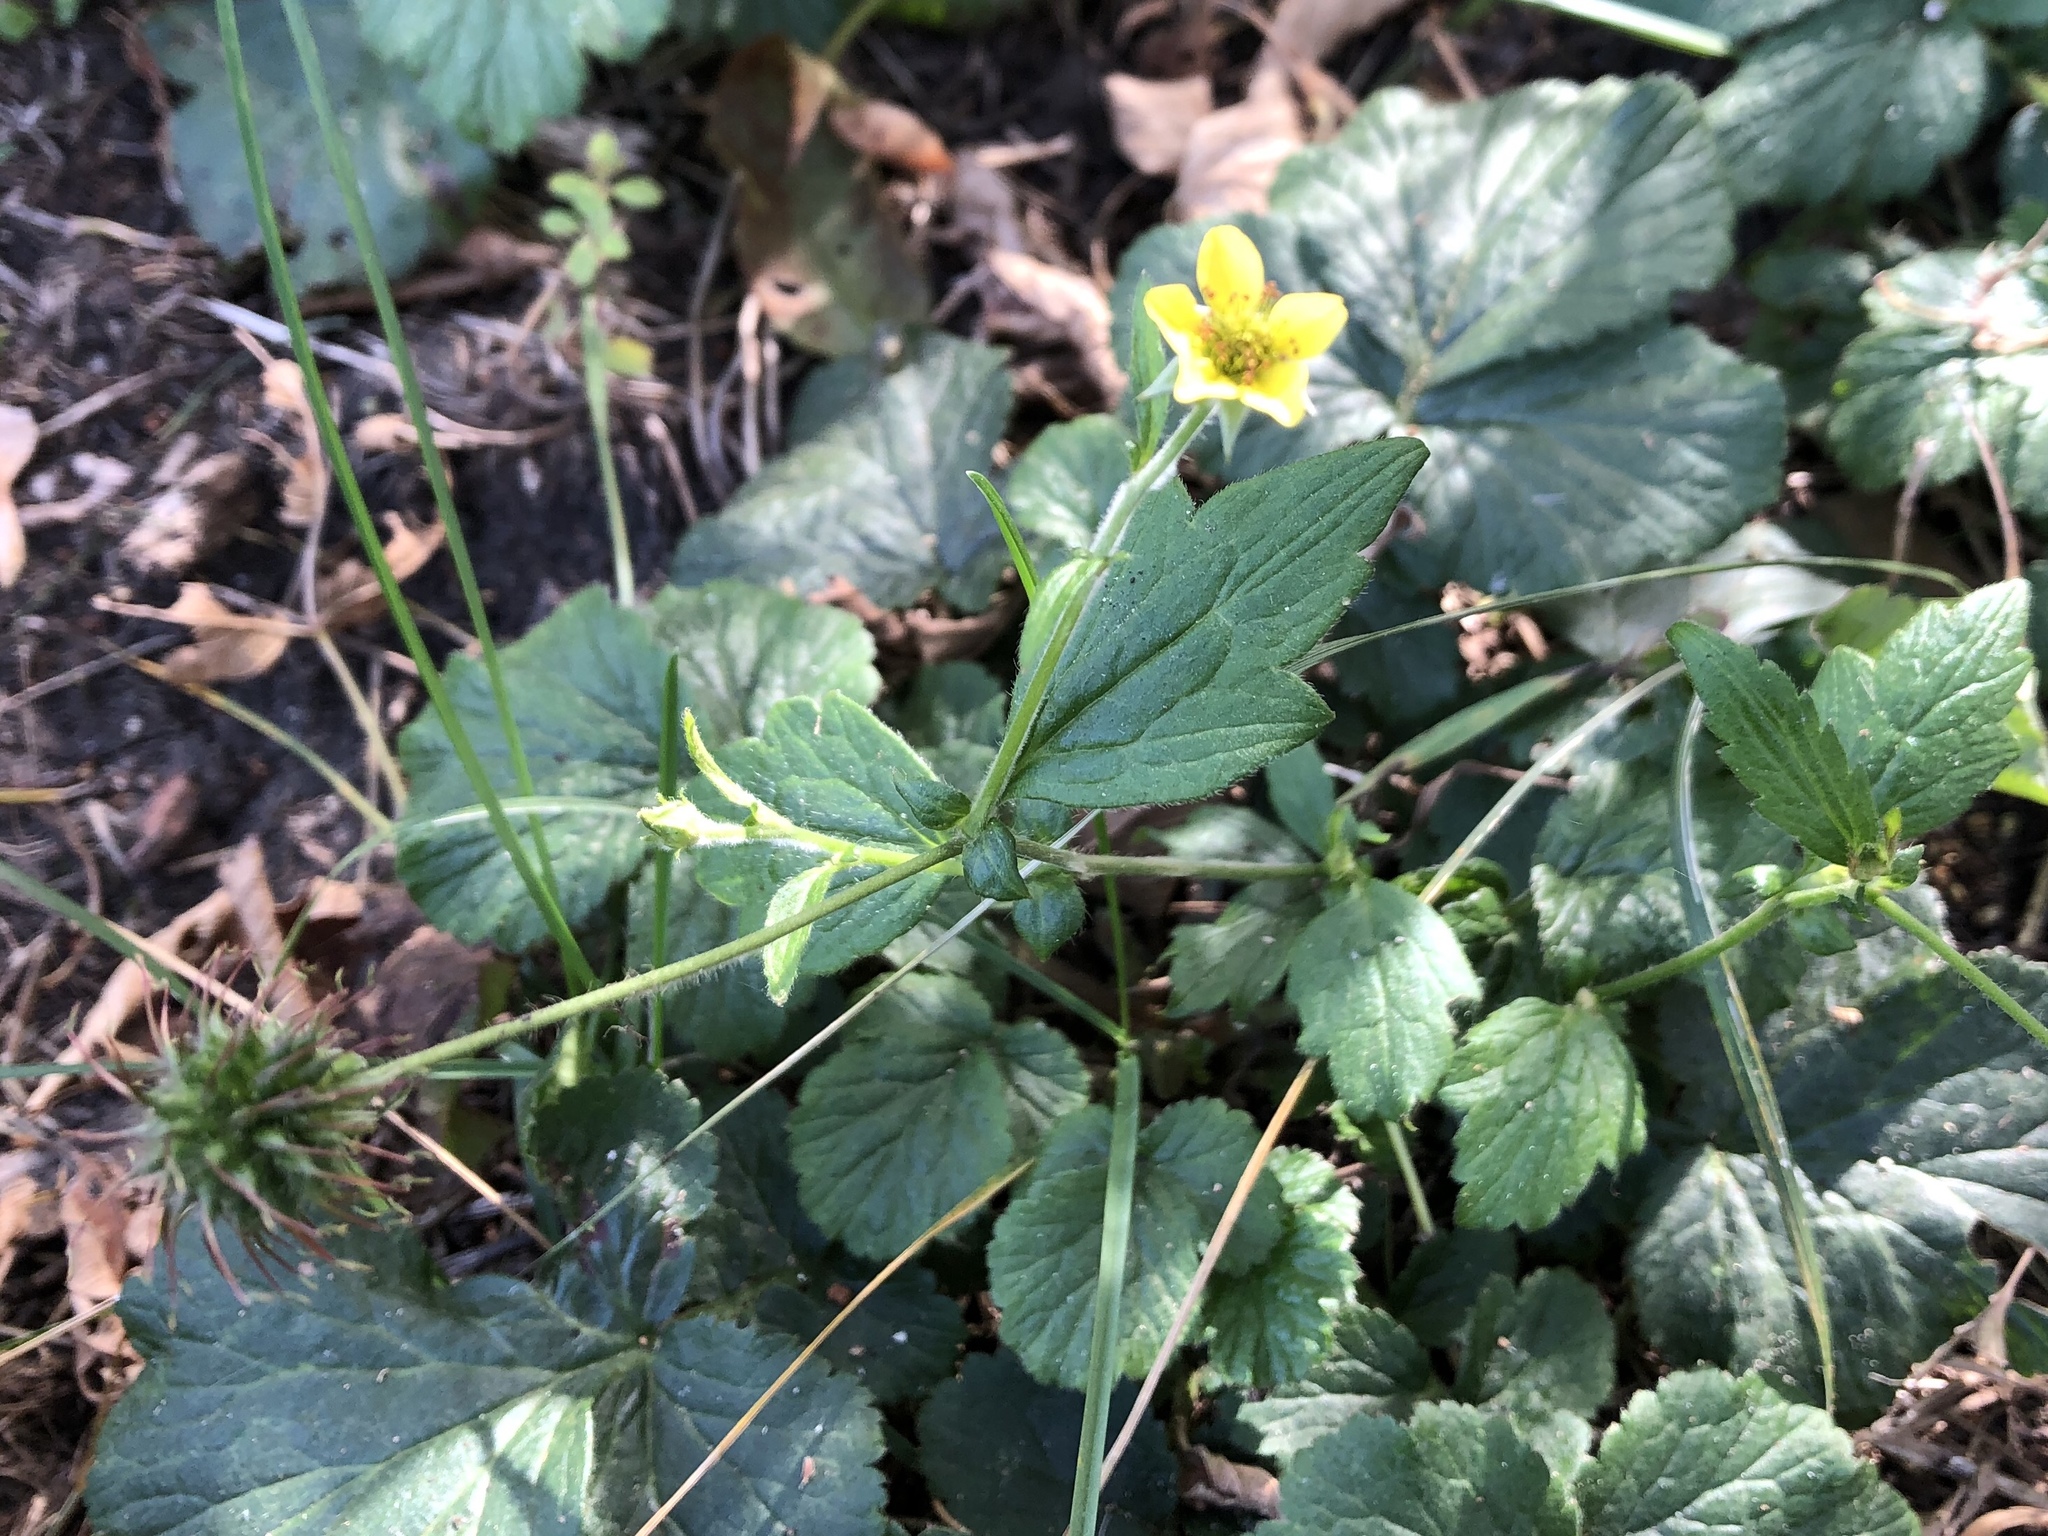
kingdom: Plantae
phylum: Tracheophyta
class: Magnoliopsida
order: Rosales
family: Rosaceae
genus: Geum
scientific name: Geum urbanum
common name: Wood avens
